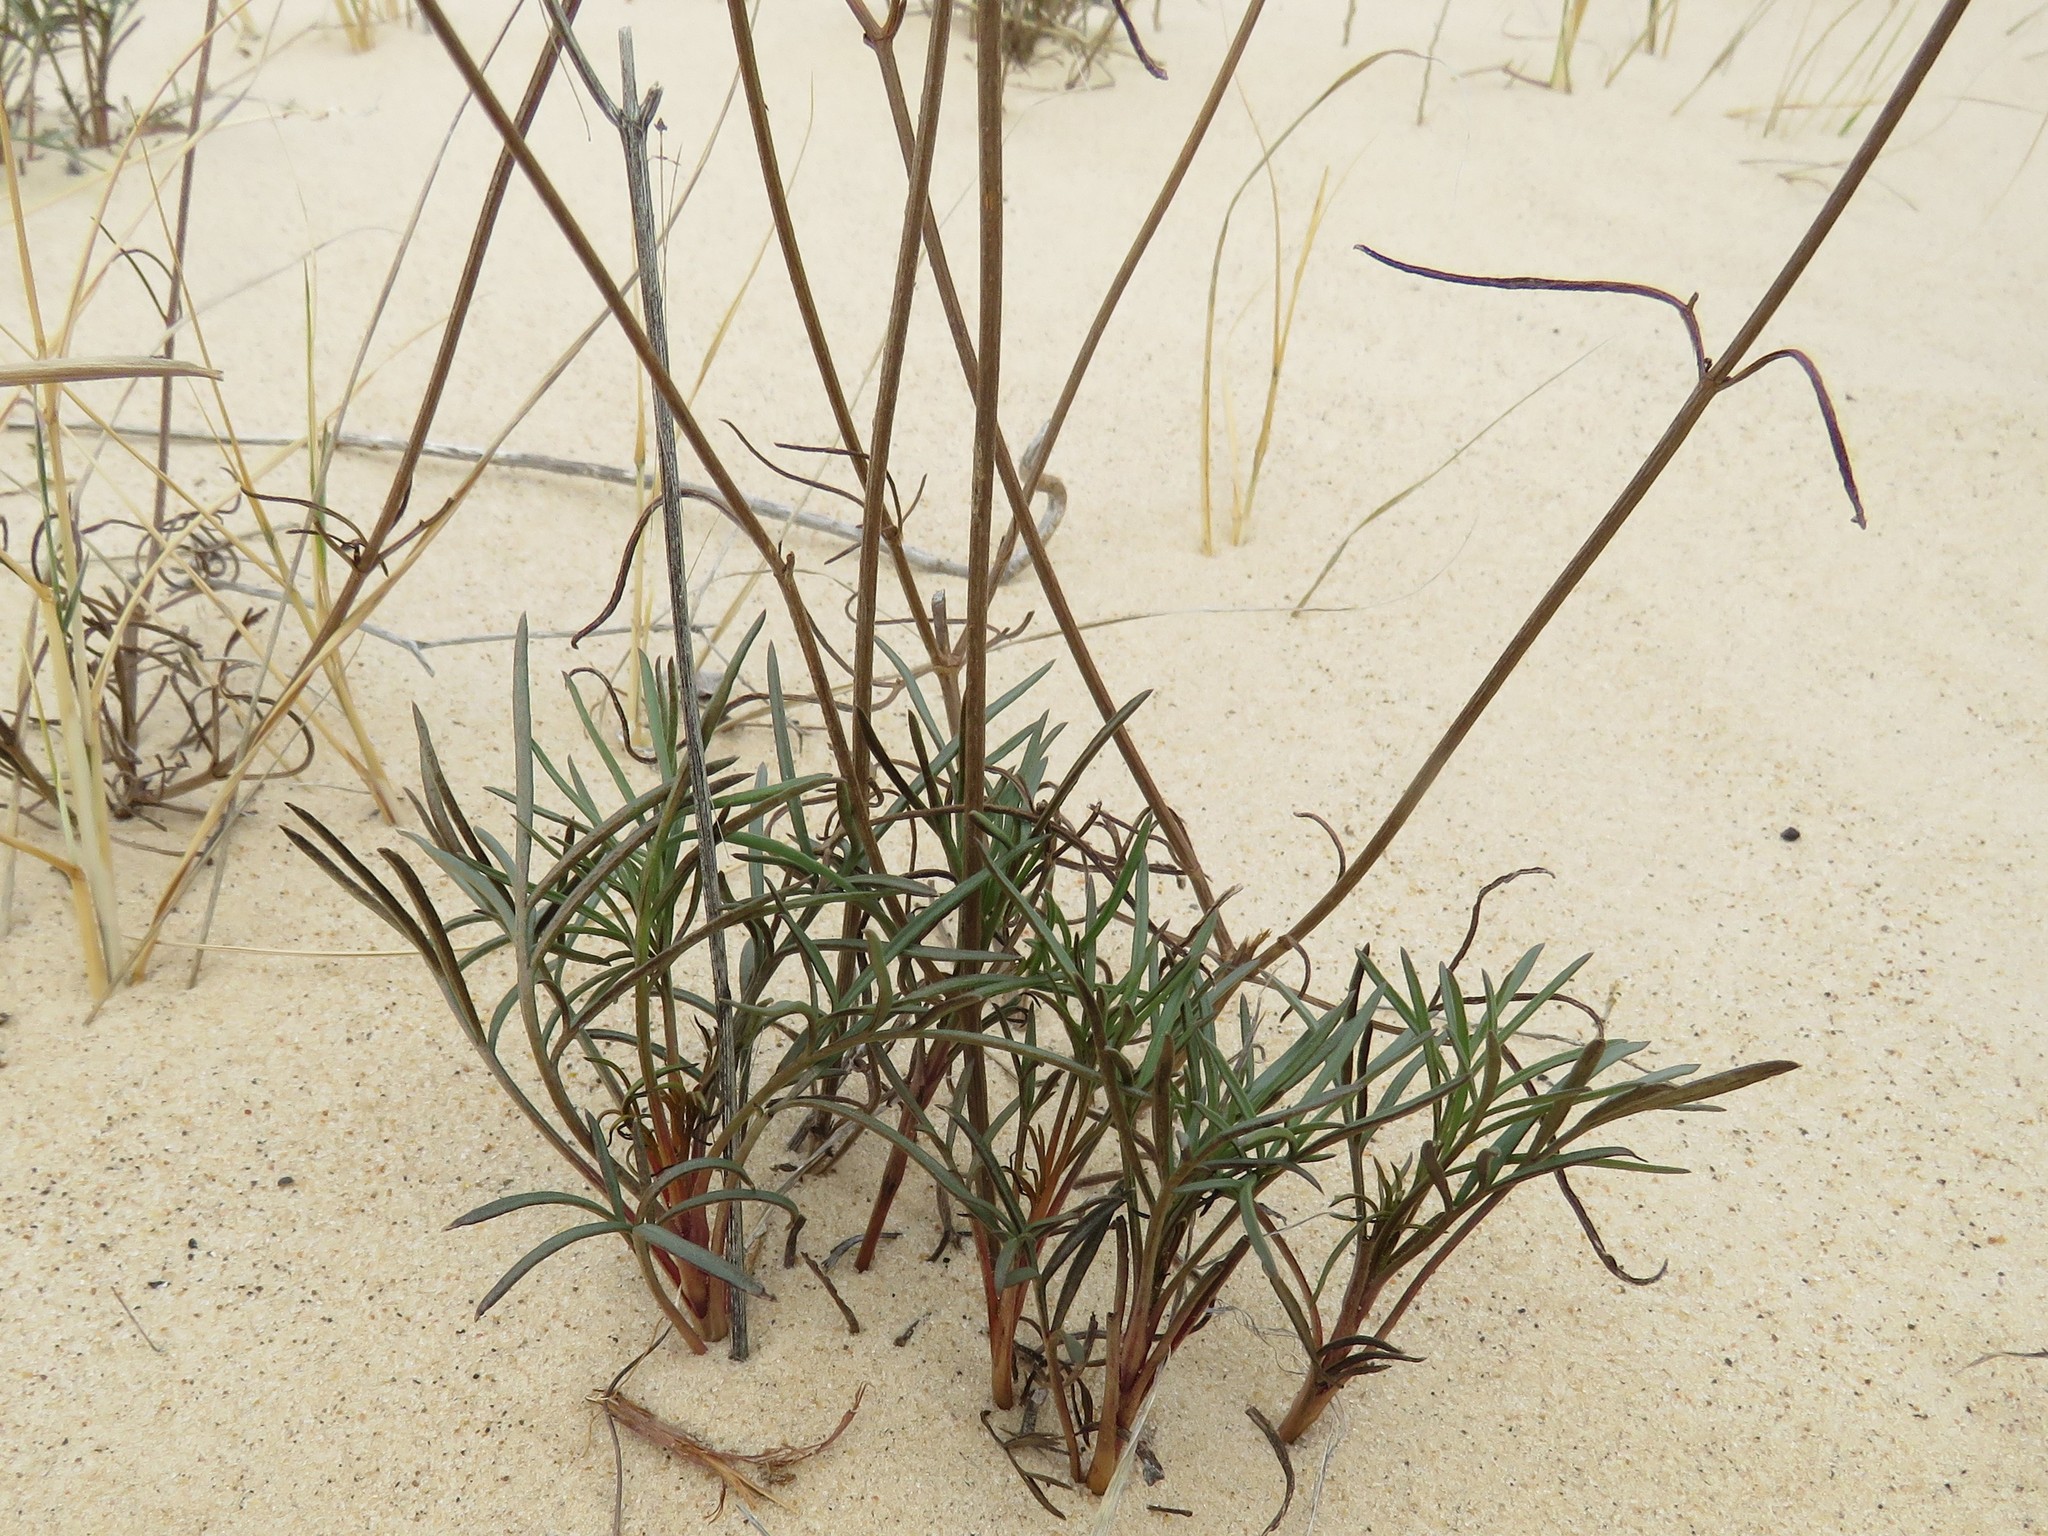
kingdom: Plantae
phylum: Tracheophyta
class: Magnoliopsida
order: Asterales
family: Asteraceae
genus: Thelesperma
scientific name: Thelesperma megapotamicum
